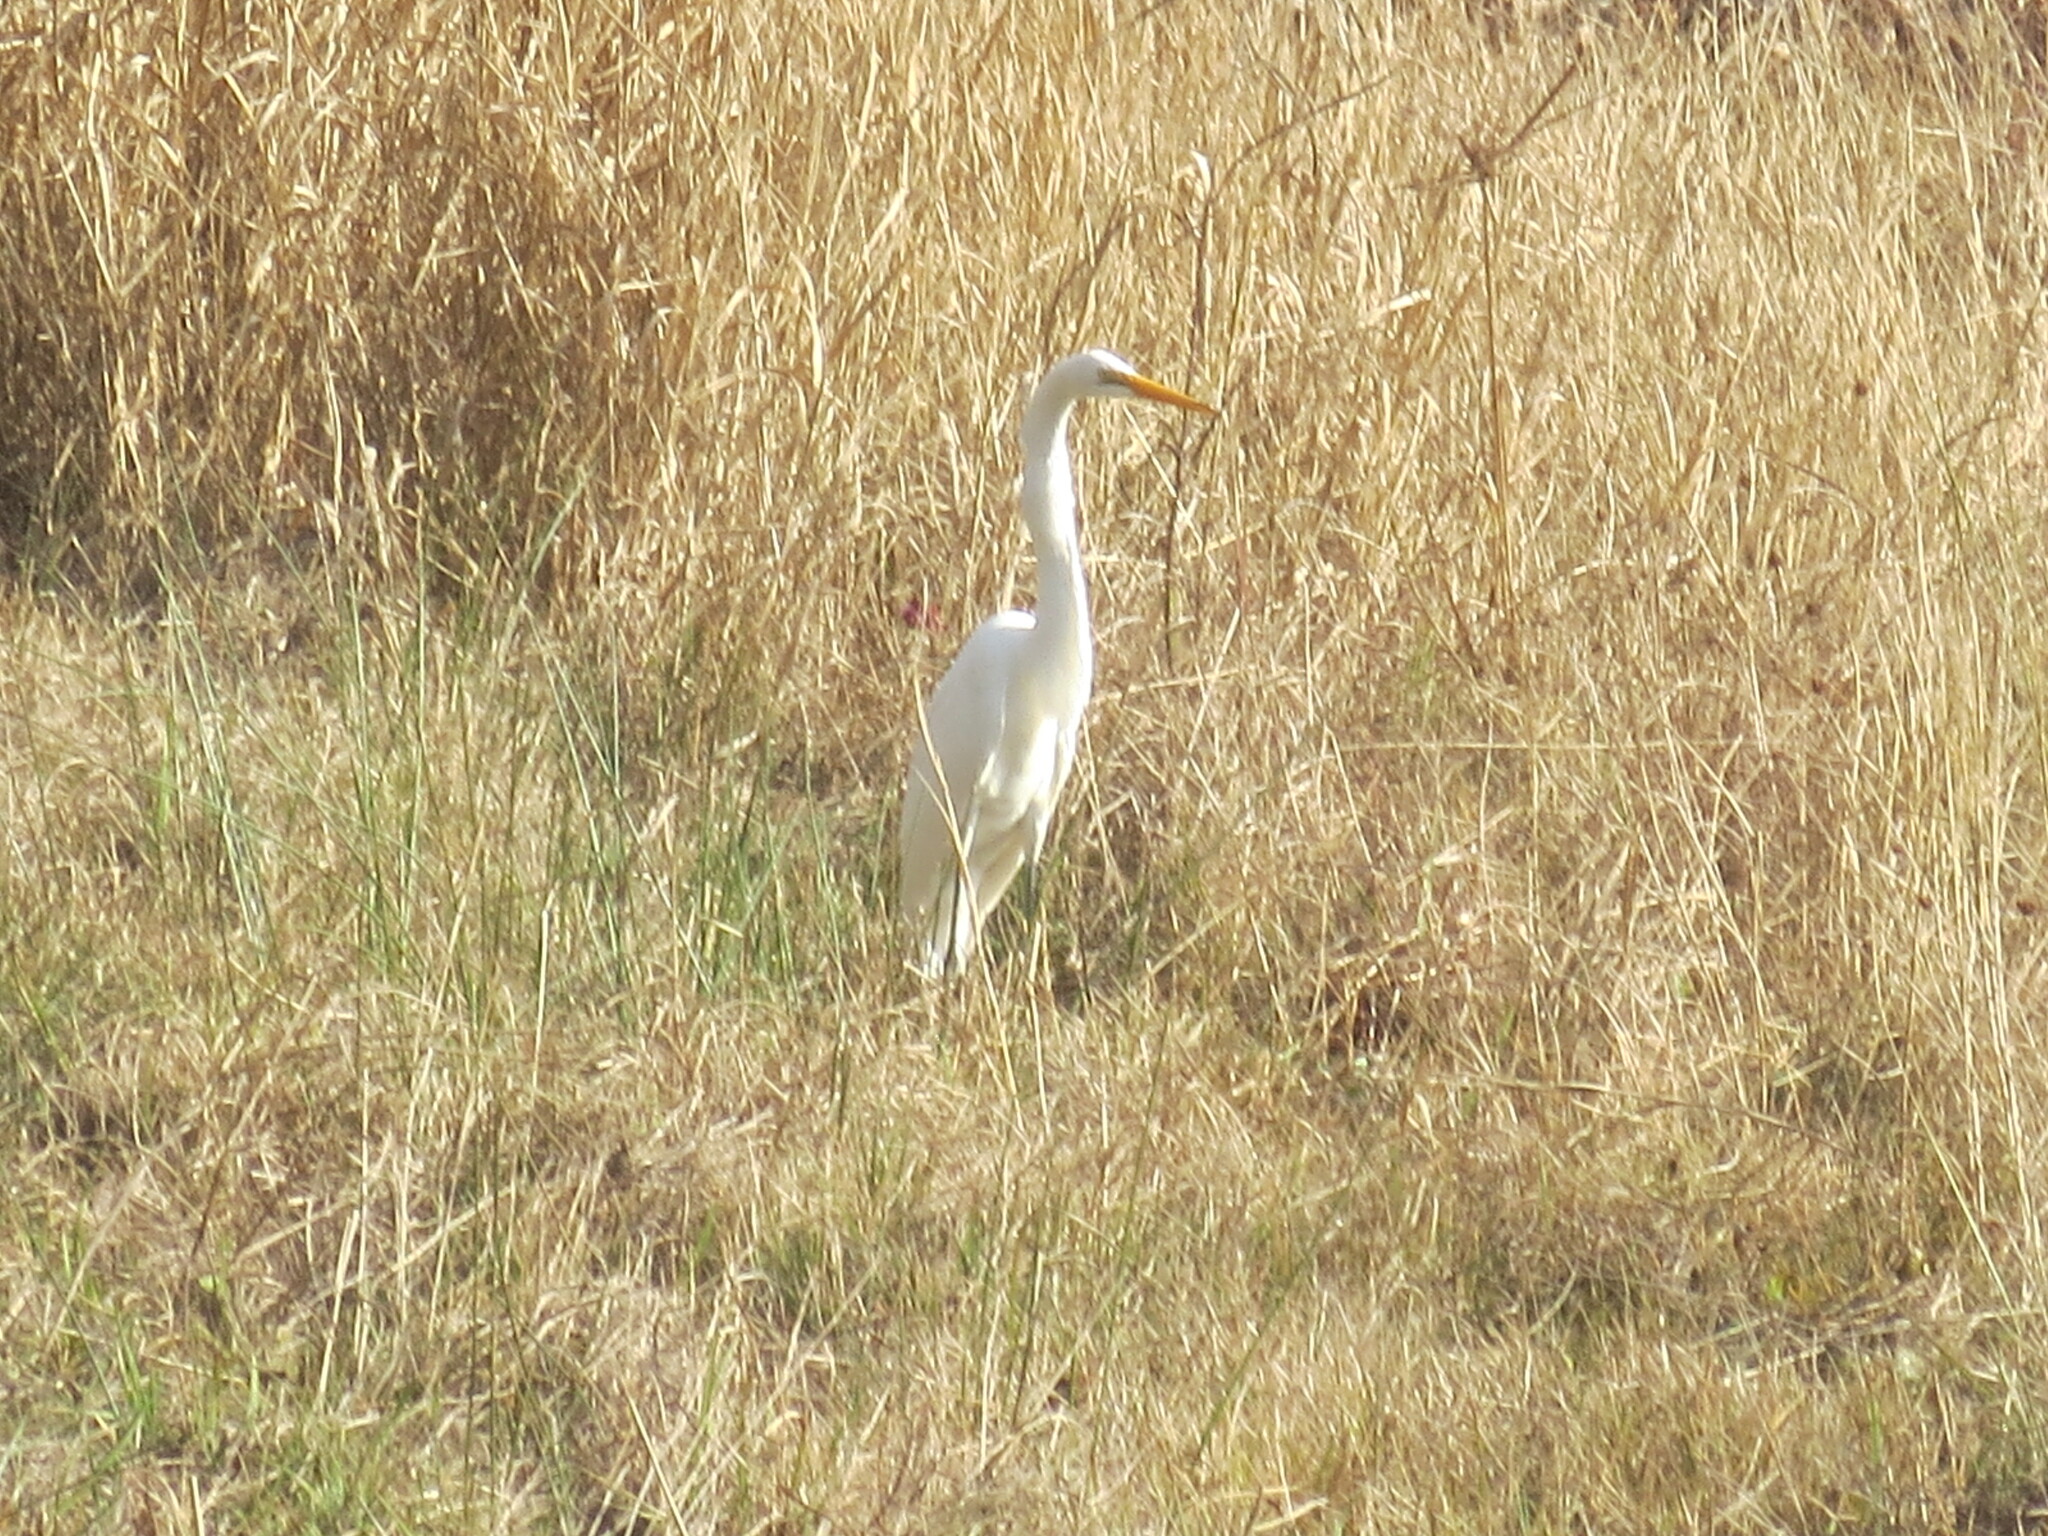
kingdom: Animalia
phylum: Chordata
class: Aves
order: Pelecaniformes
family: Ardeidae
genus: Ardea
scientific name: Ardea alba
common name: Great egret
